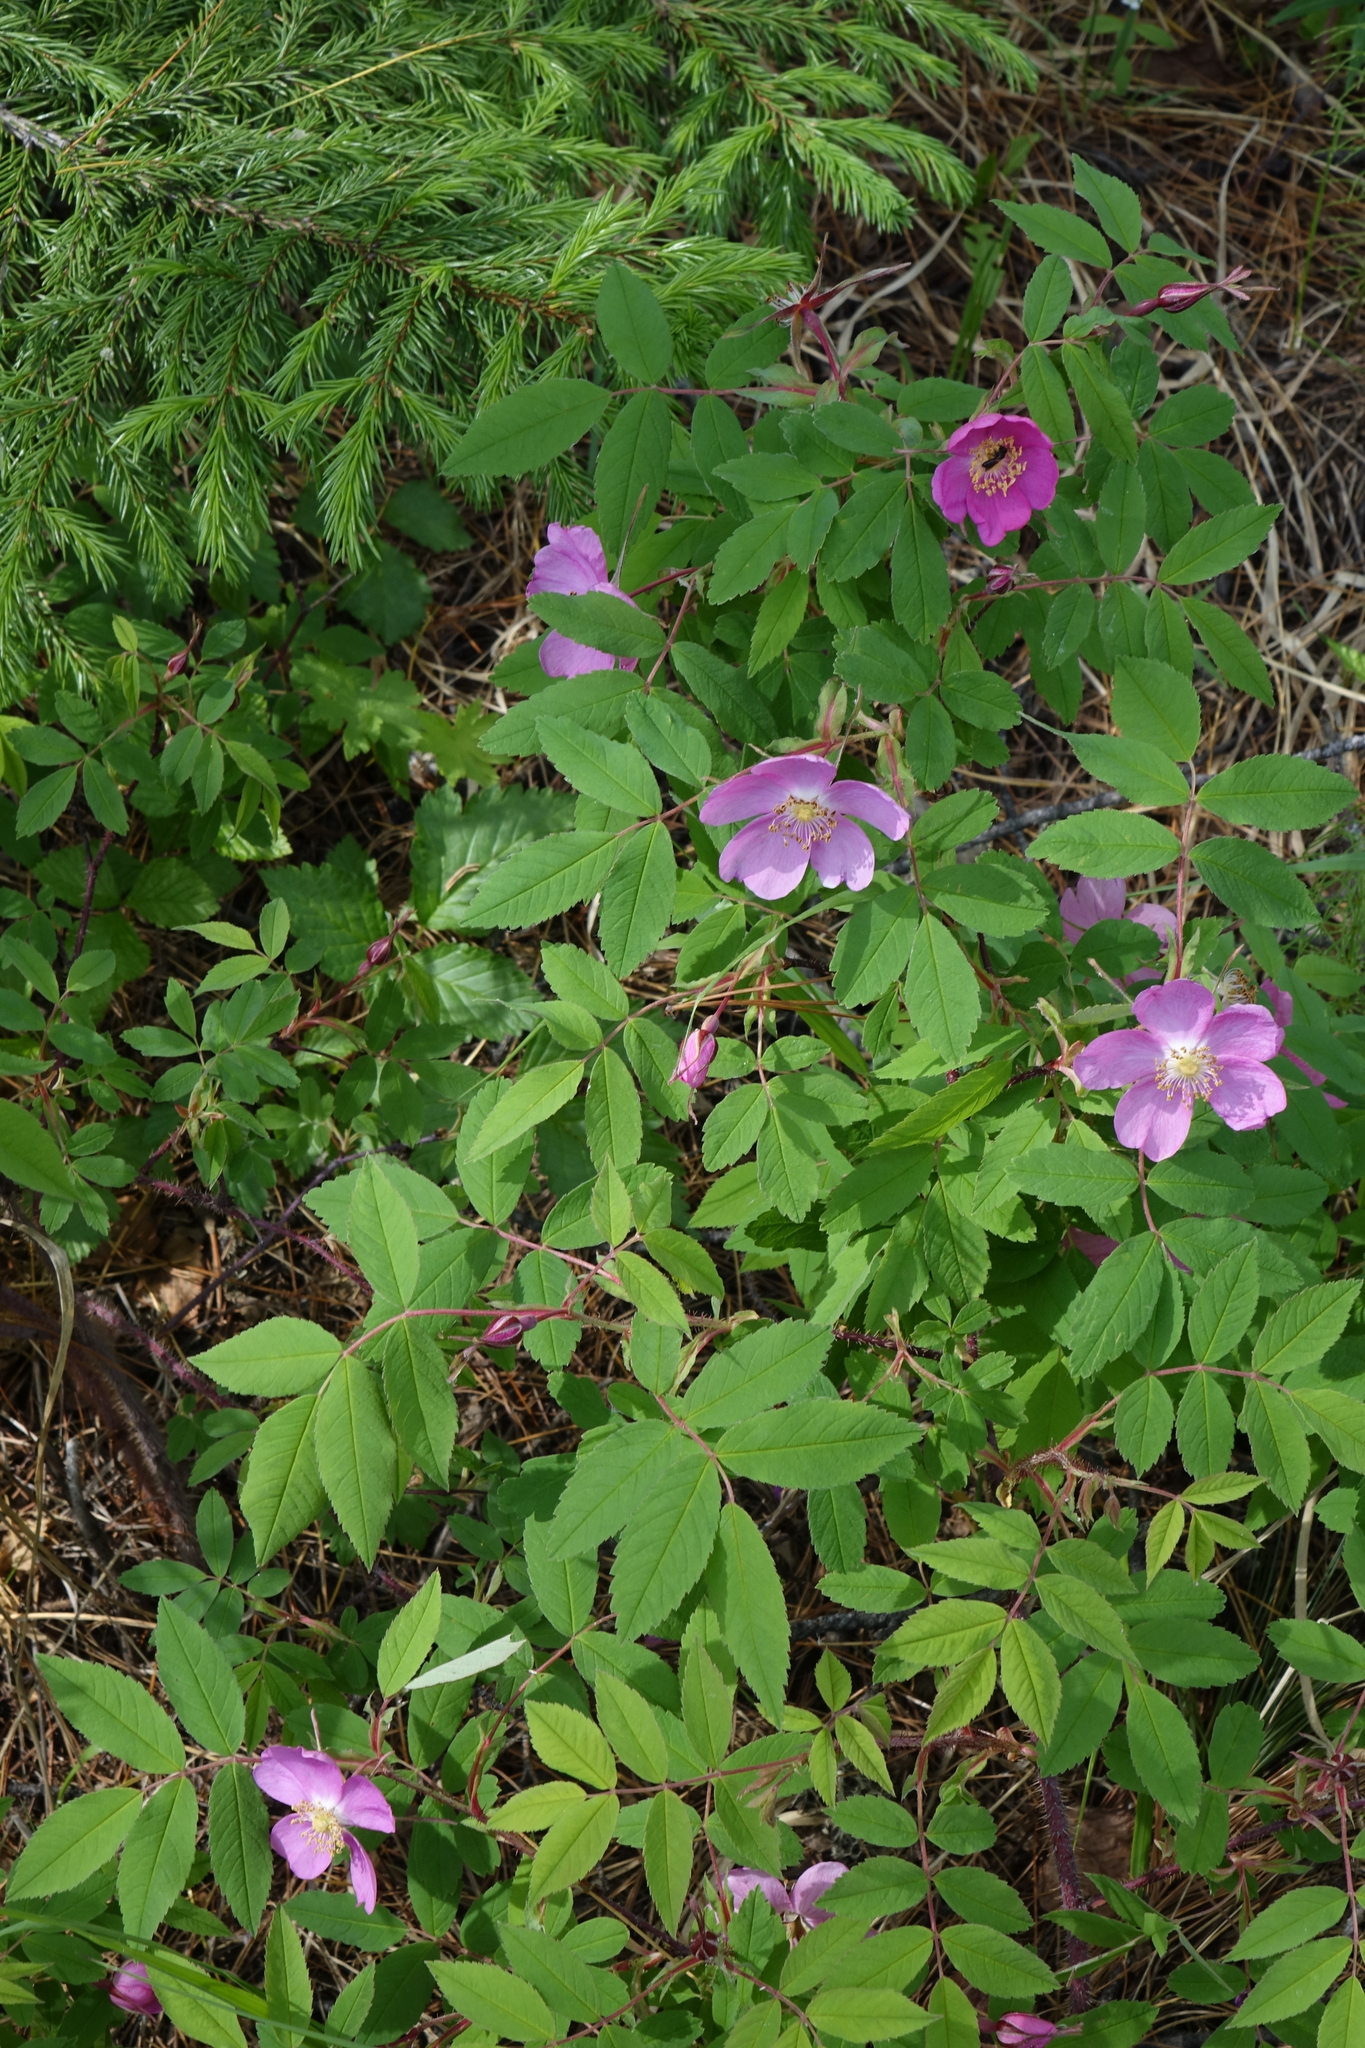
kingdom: Plantae
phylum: Tracheophyta
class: Magnoliopsida
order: Rosales
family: Rosaceae
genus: Rosa
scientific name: Rosa acicularis
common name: Prickly rose
